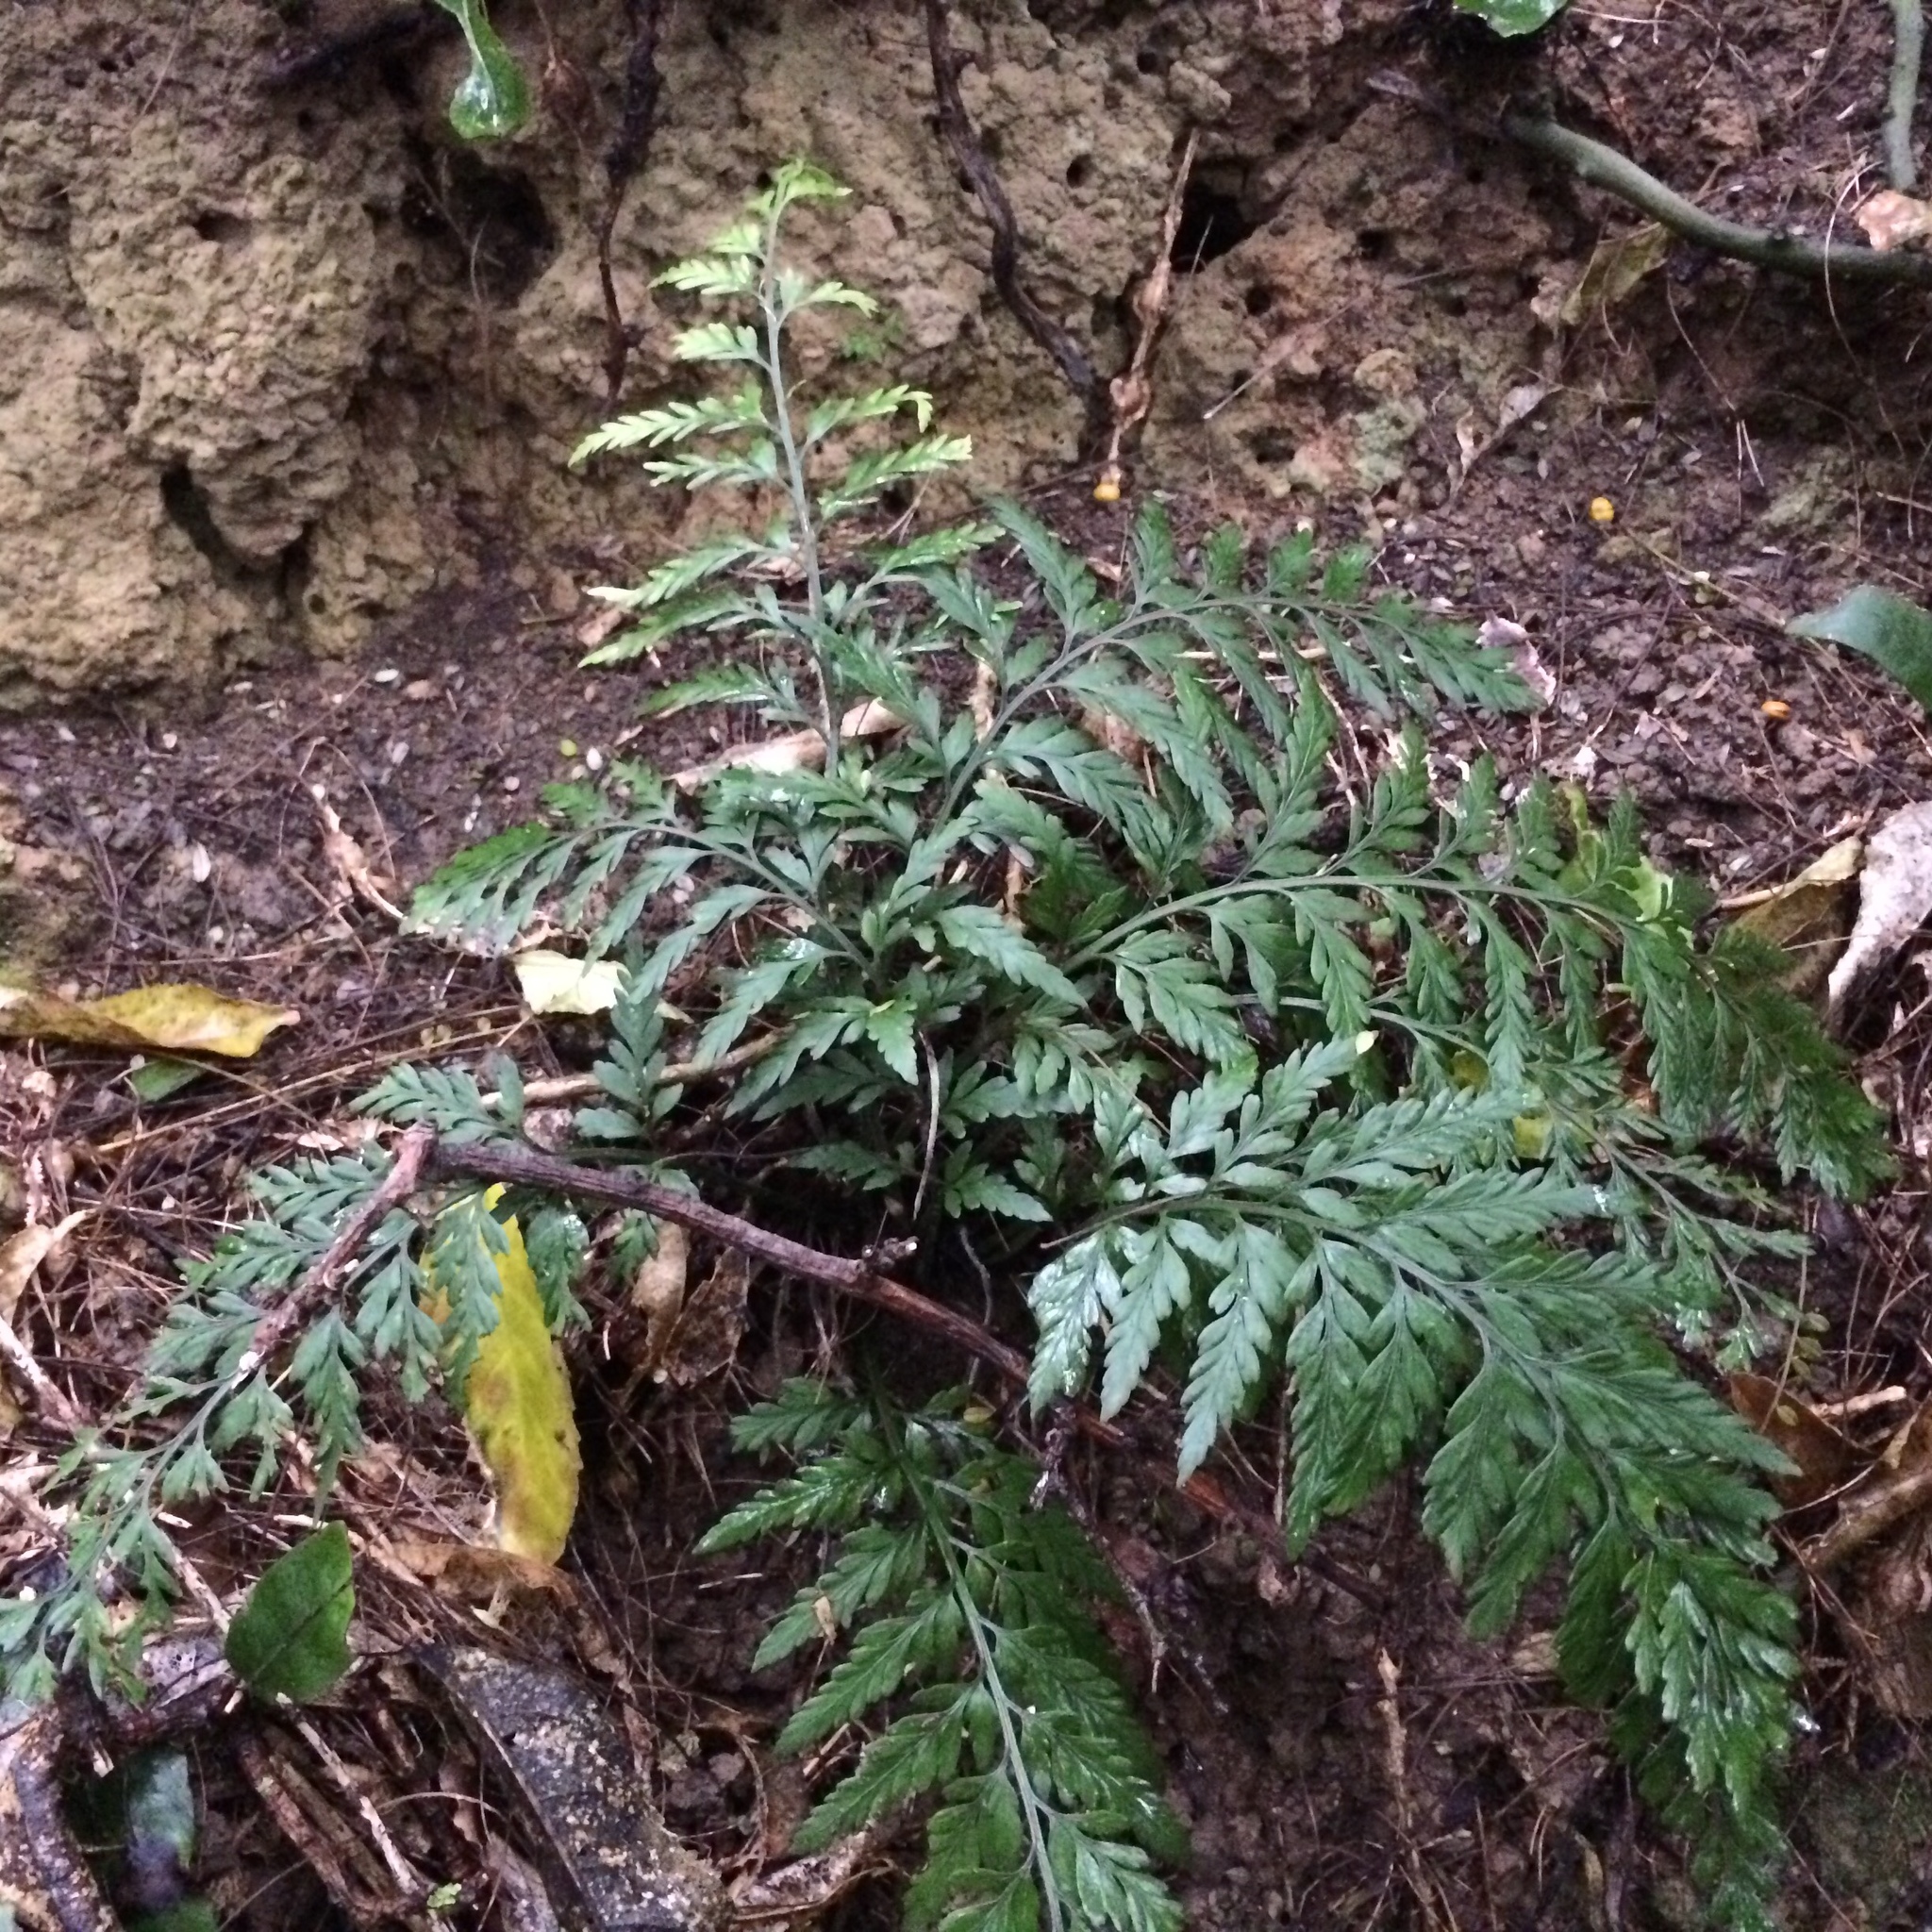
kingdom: Plantae
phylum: Tracheophyta
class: Polypodiopsida
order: Polypodiales
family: Aspleniaceae
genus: Asplenium
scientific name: Asplenium
